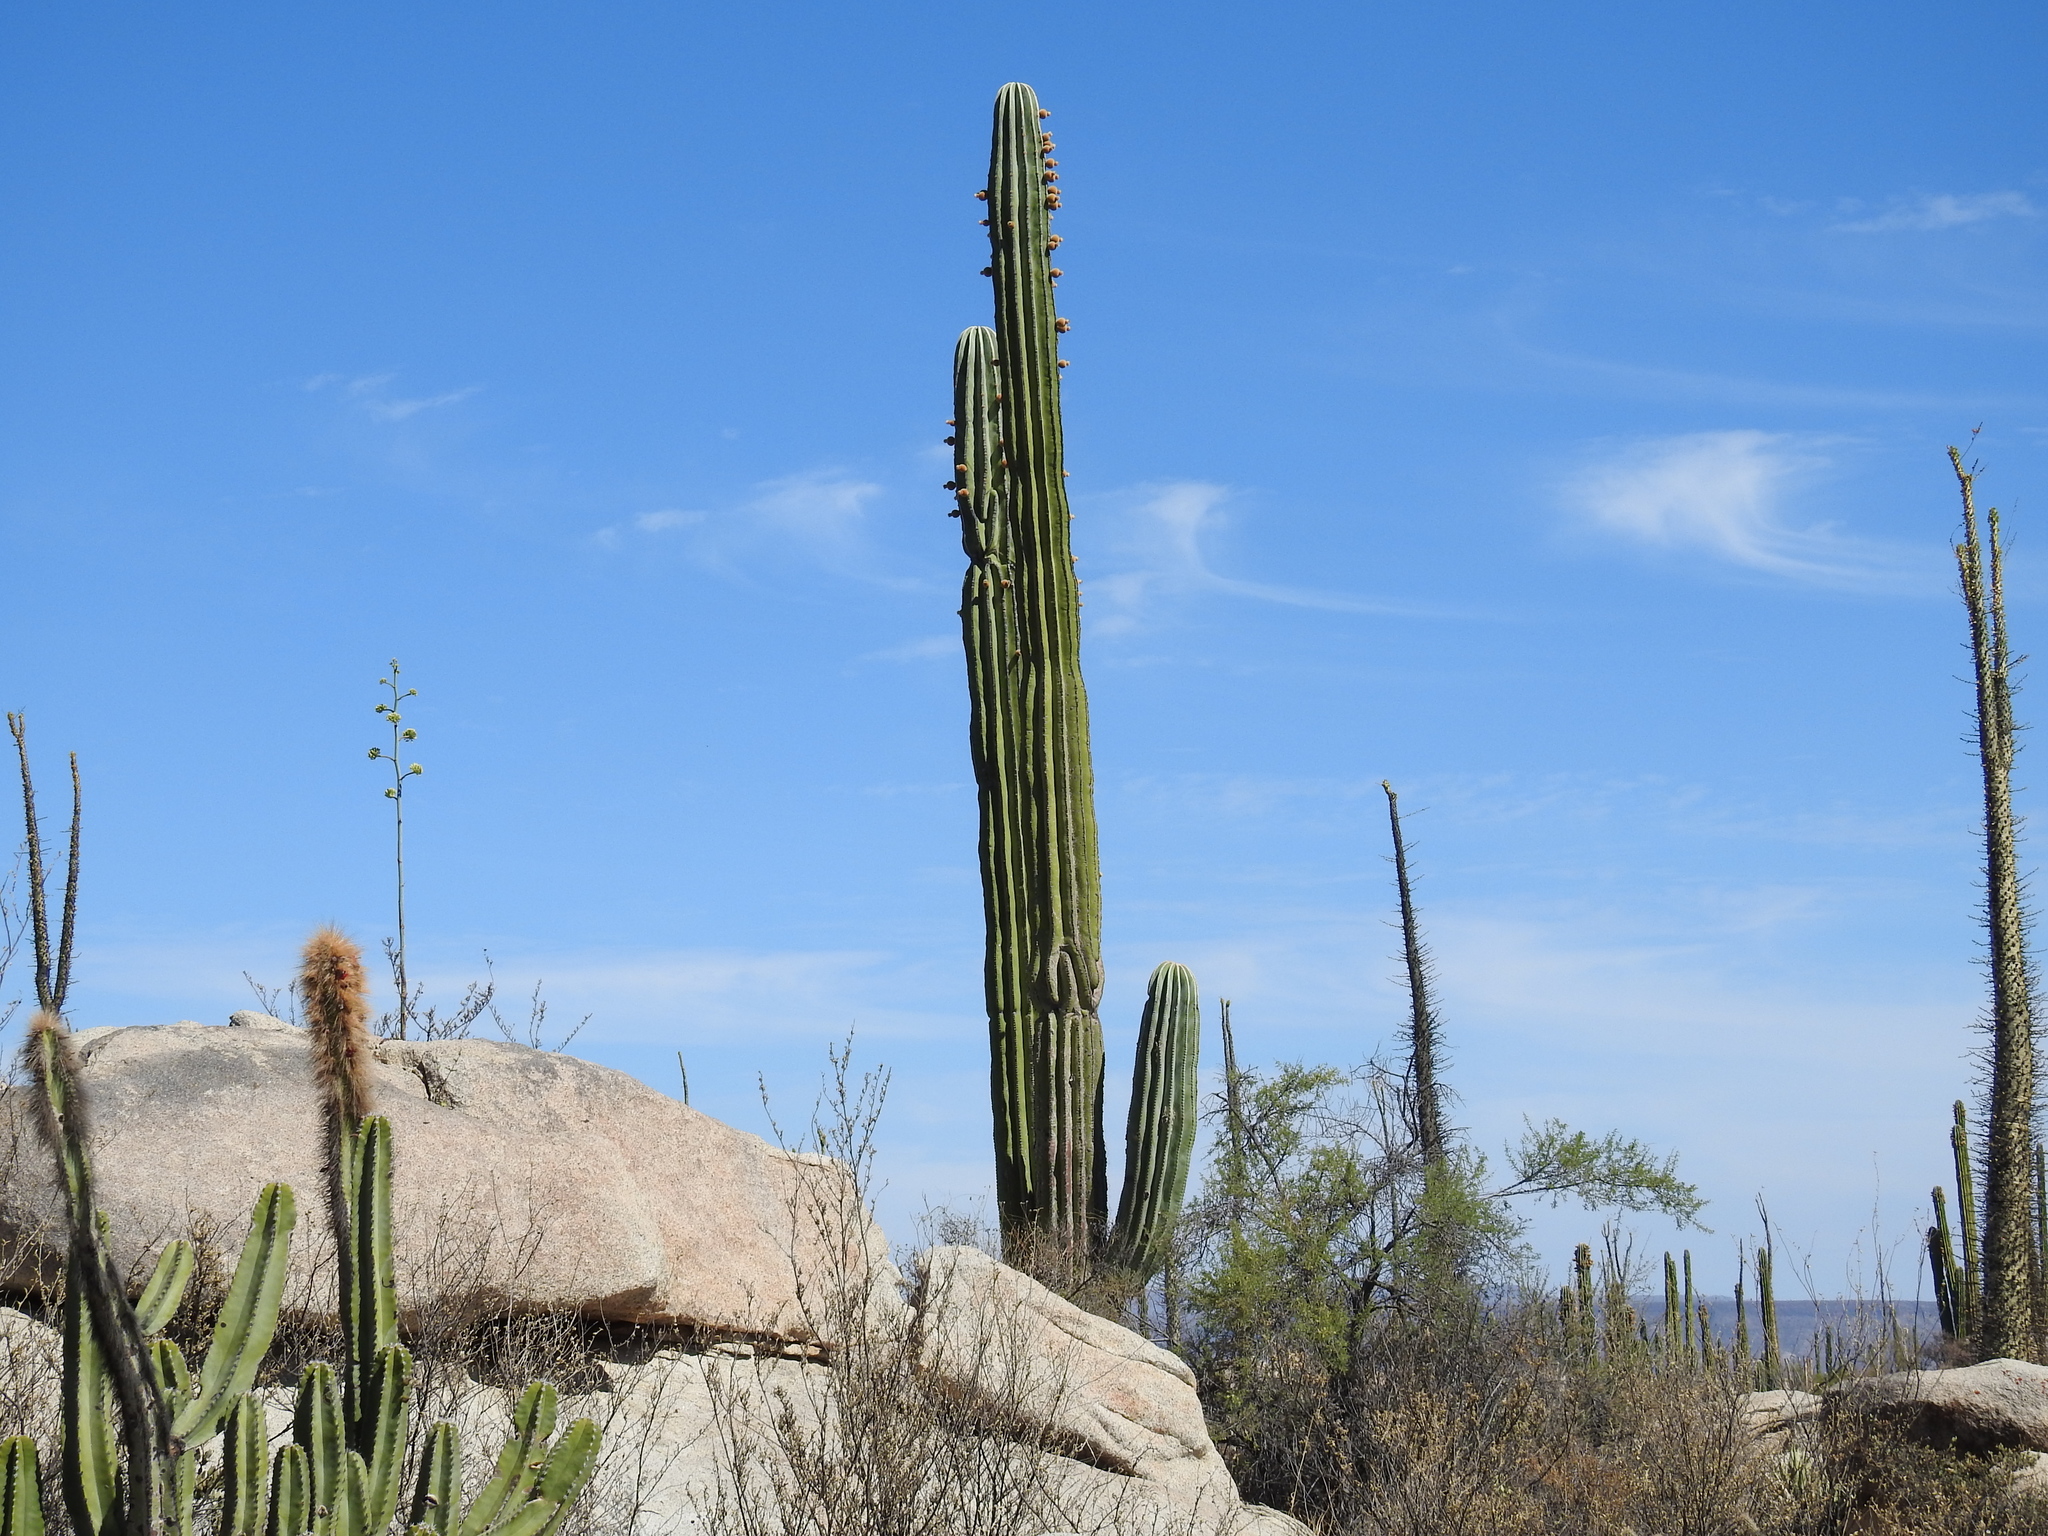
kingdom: Plantae
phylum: Tracheophyta
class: Magnoliopsida
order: Caryophyllales
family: Cactaceae
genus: Pachycereus
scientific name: Pachycereus pringlei
